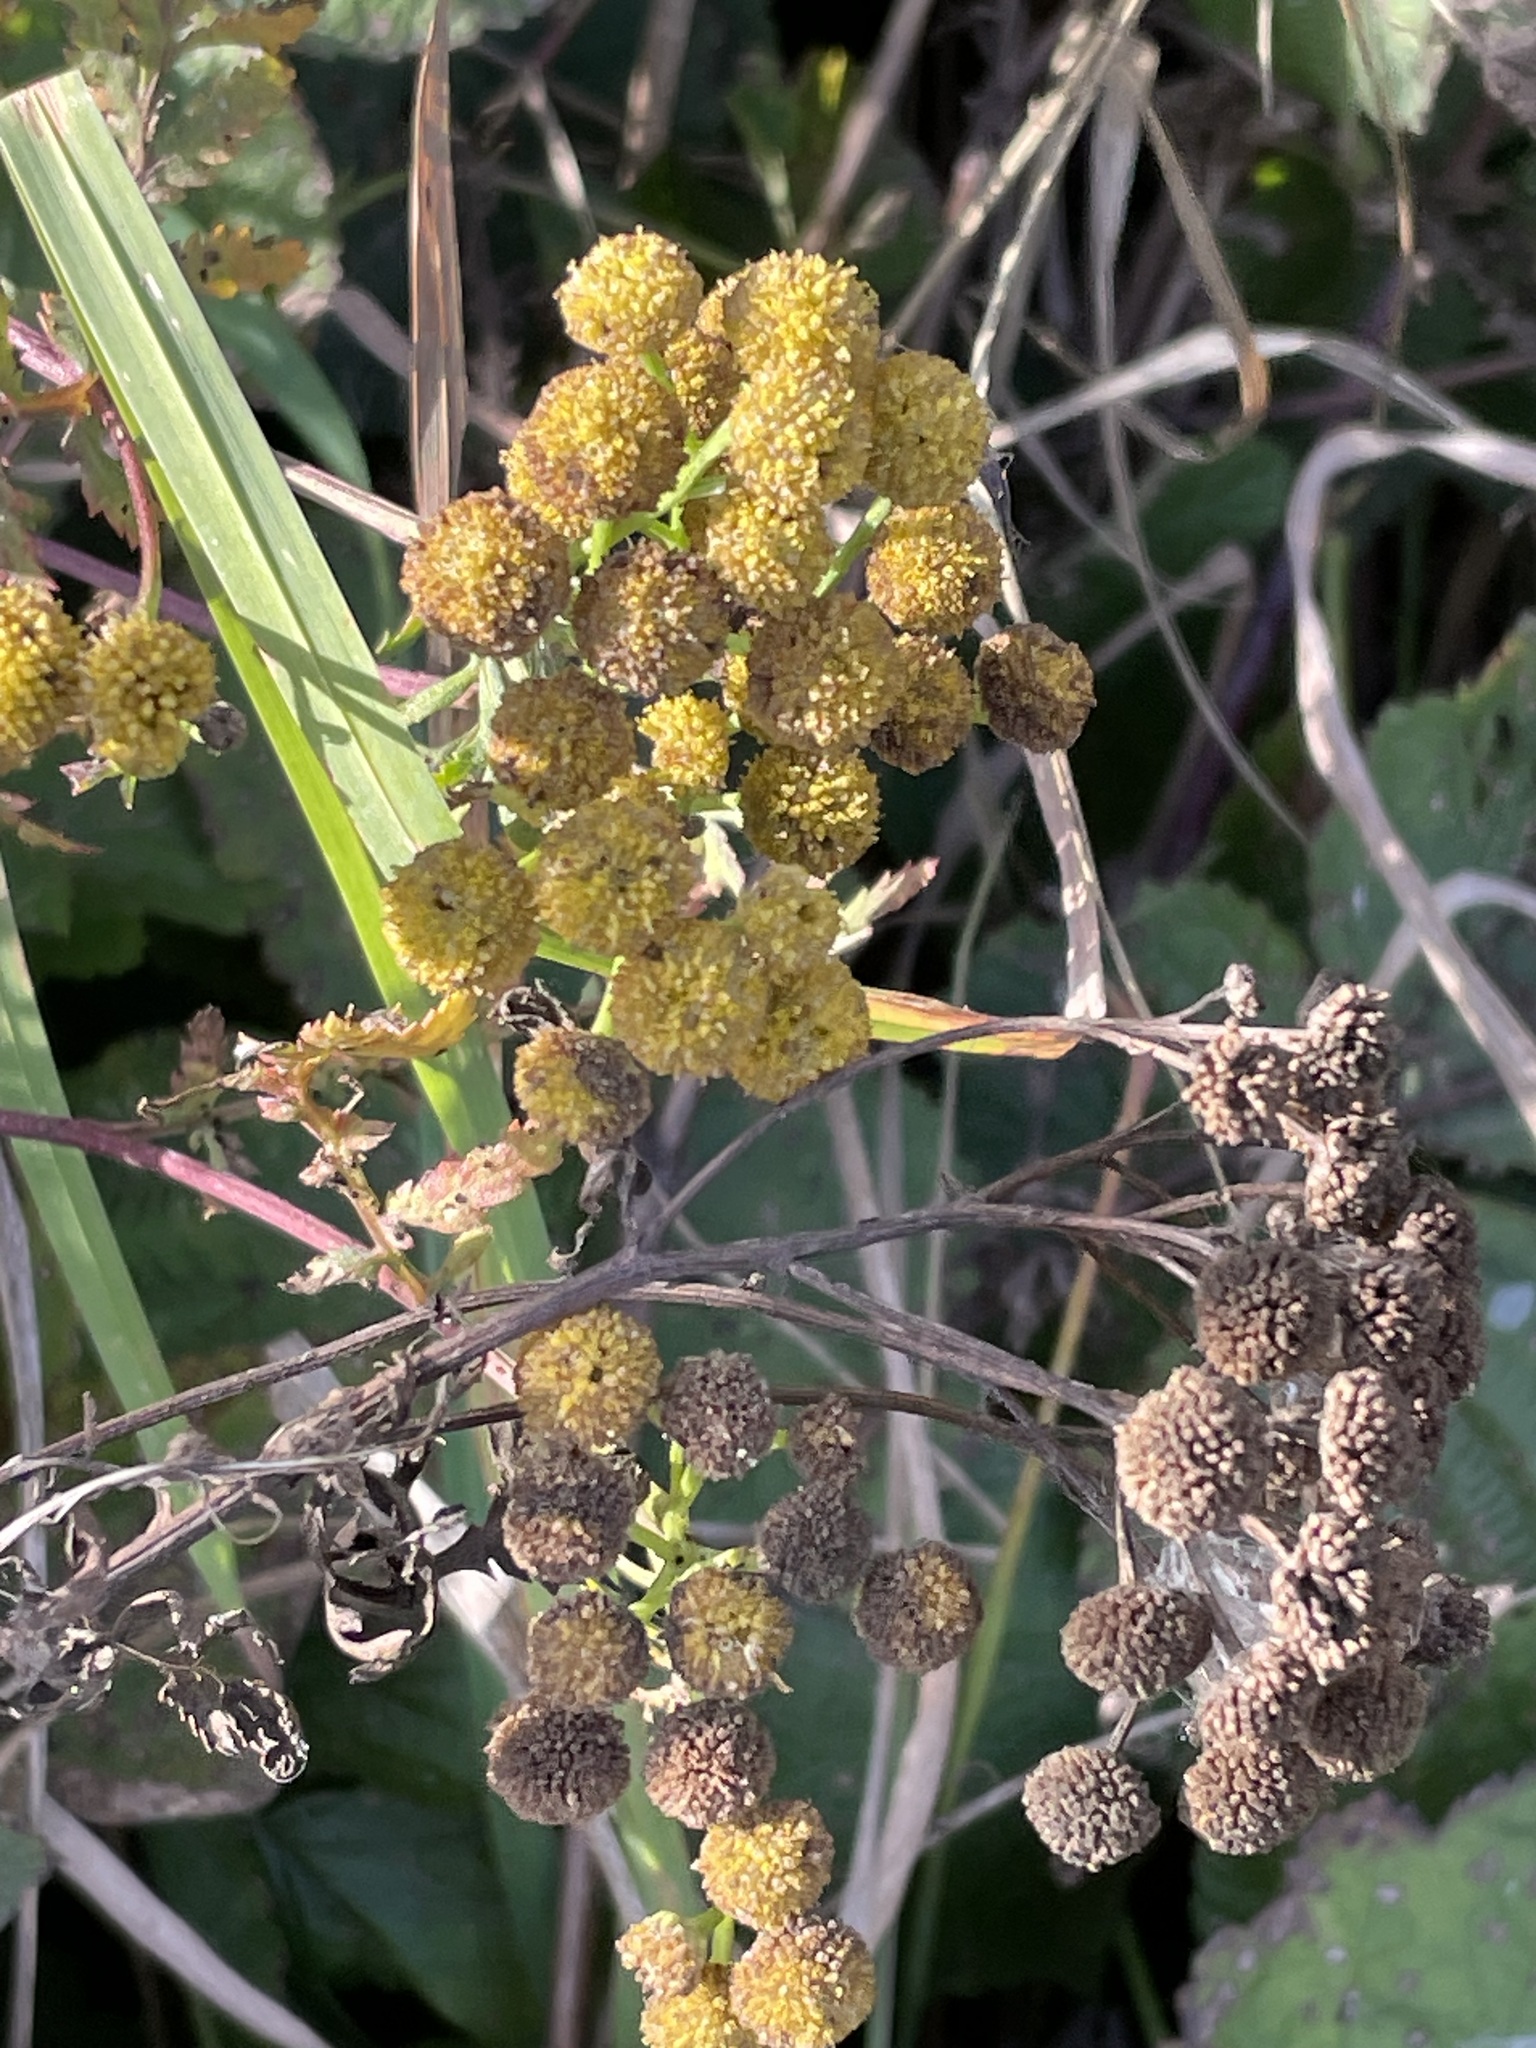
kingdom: Plantae
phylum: Tracheophyta
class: Magnoliopsida
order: Asterales
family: Asteraceae
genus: Tanacetum
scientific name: Tanacetum vulgare
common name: Common tansy
